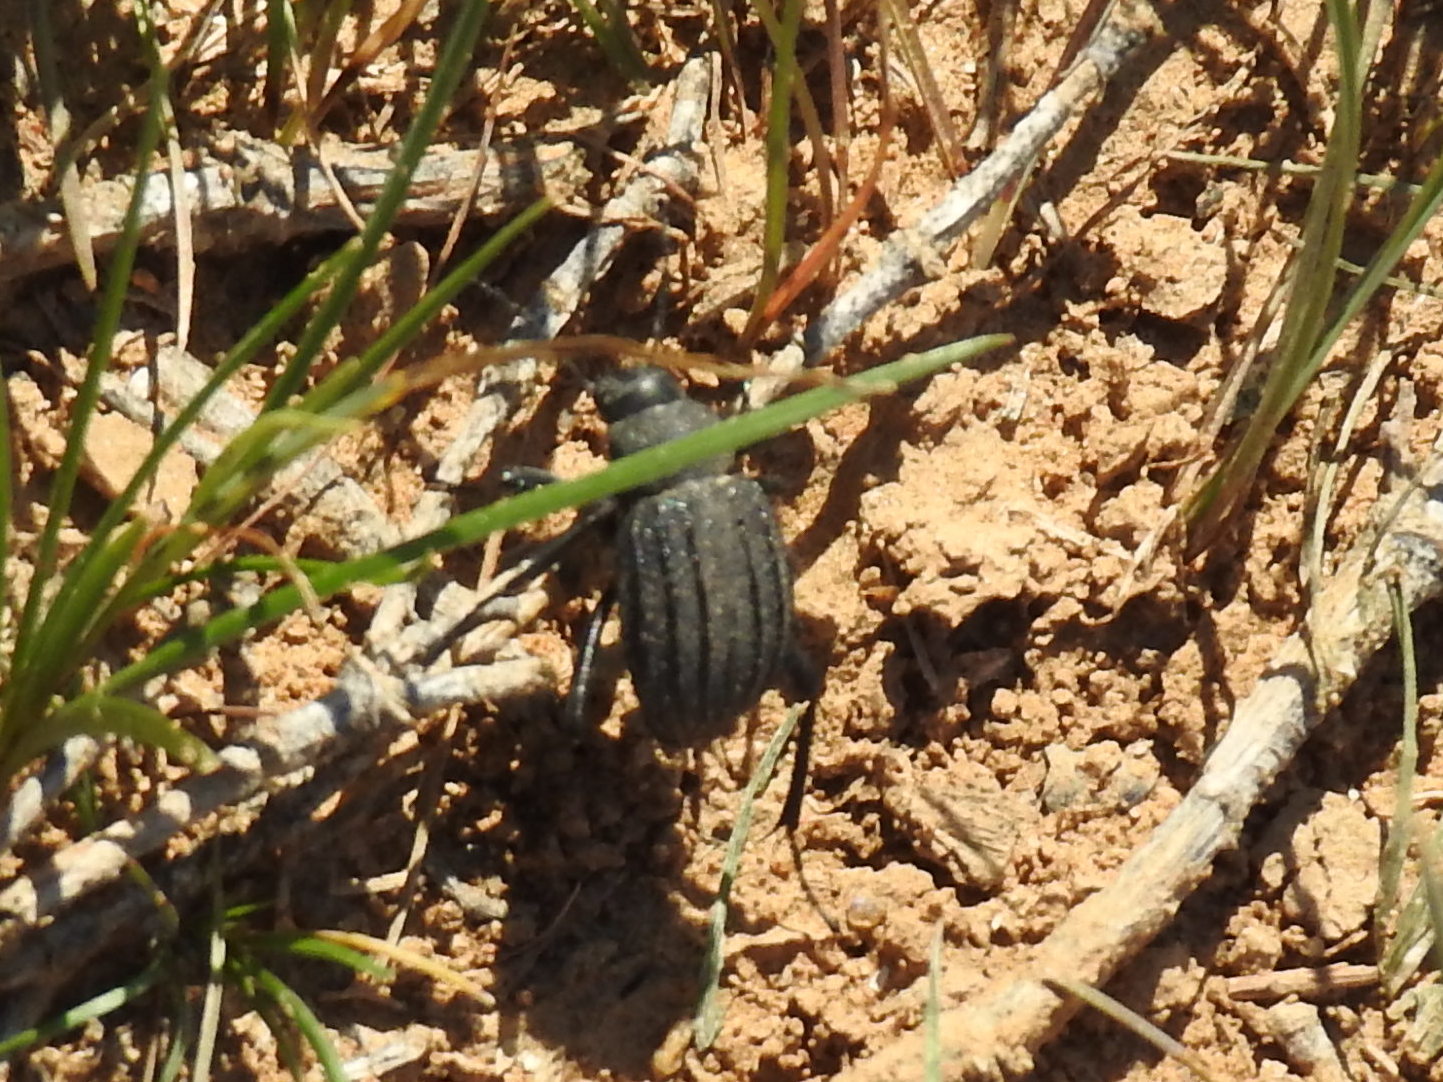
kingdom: Animalia
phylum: Arthropoda
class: Insecta
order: Coleoptera
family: Tenebrionidae
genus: Lasiostola
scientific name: Lasiostola pubescens
